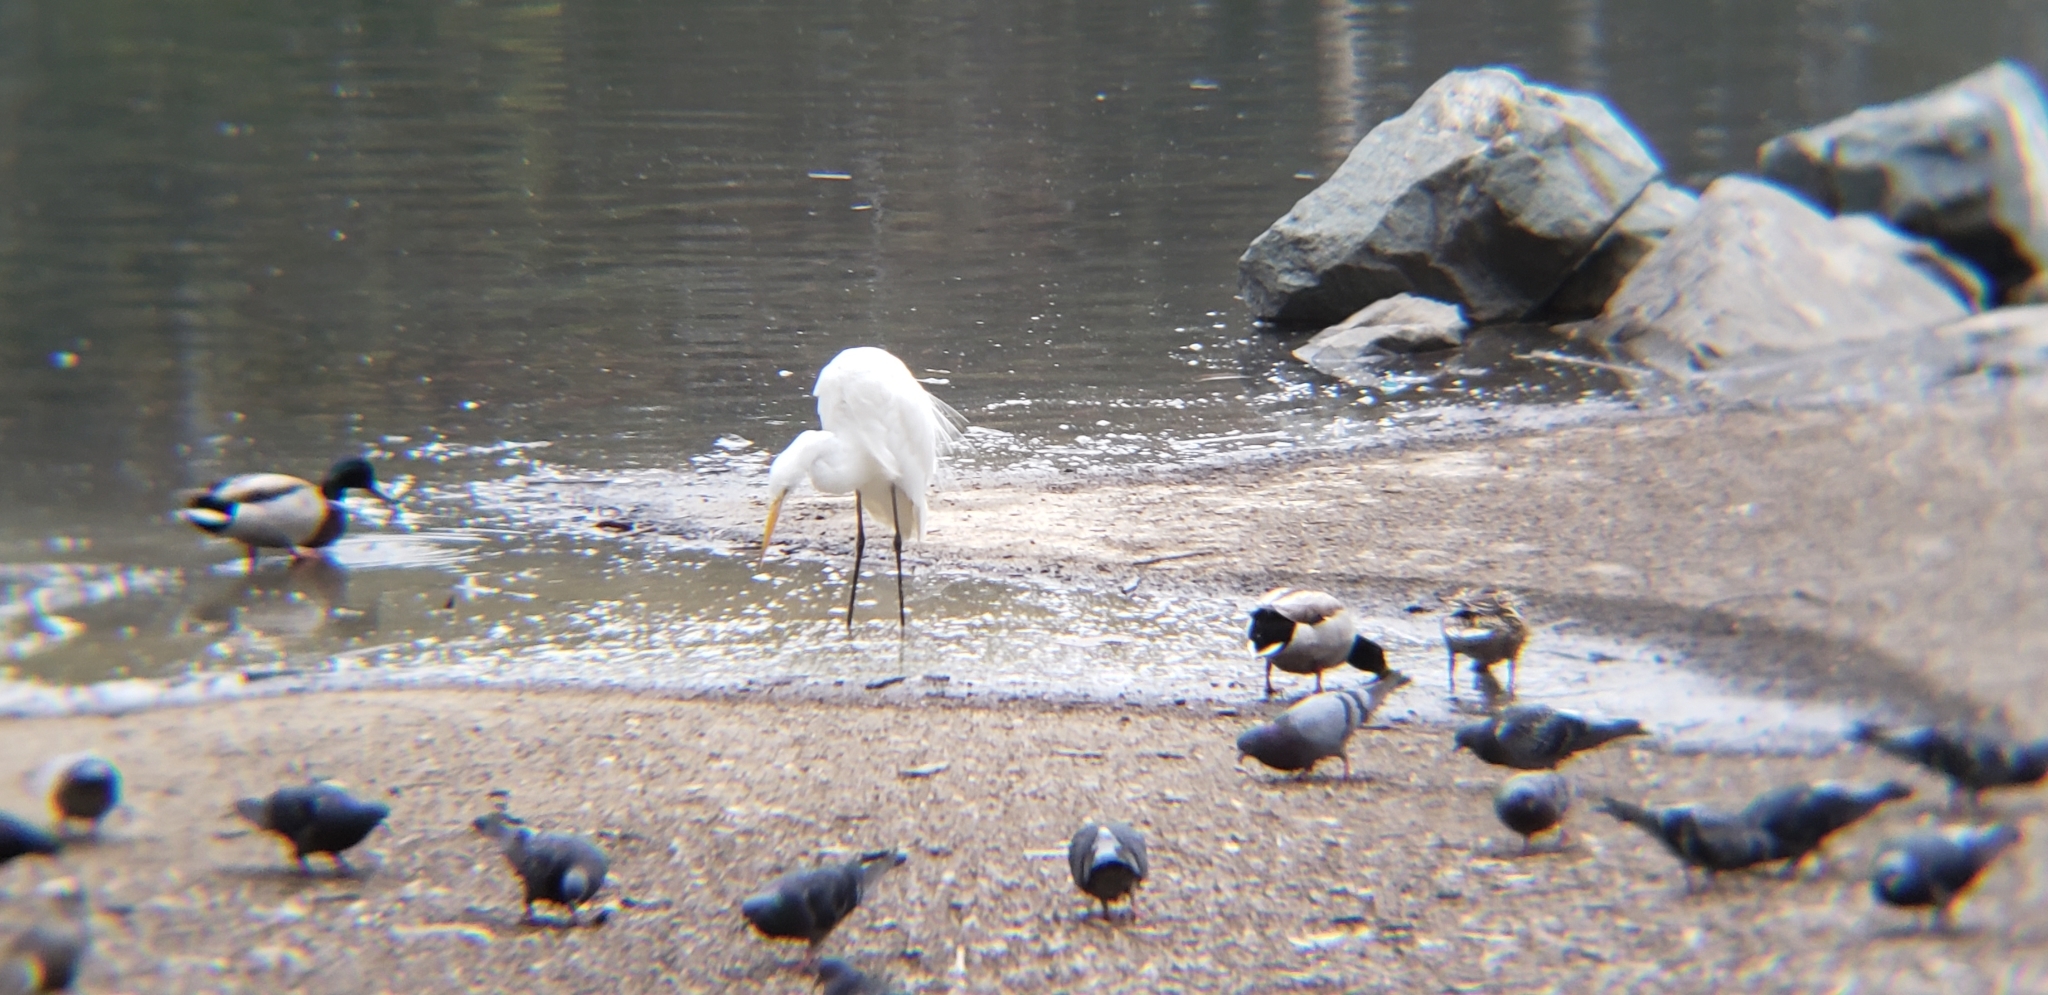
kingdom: Animalia
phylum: Chordata
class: Aves
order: Pelecaniformes
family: Ardeidae
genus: Ardea
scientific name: Ardea alba
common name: Great egret
